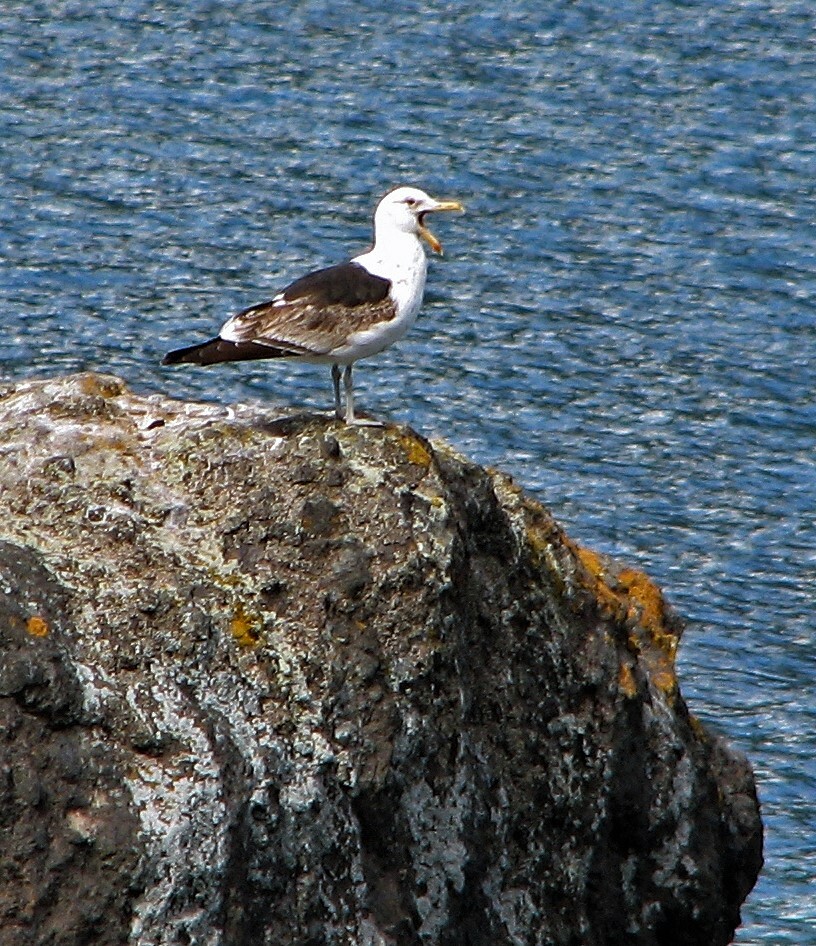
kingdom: Animalia
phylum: Chordata
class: Aves
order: Charadriiformes
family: Laridae
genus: Larus
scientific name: Larus dominicanus
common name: Kelp gull
